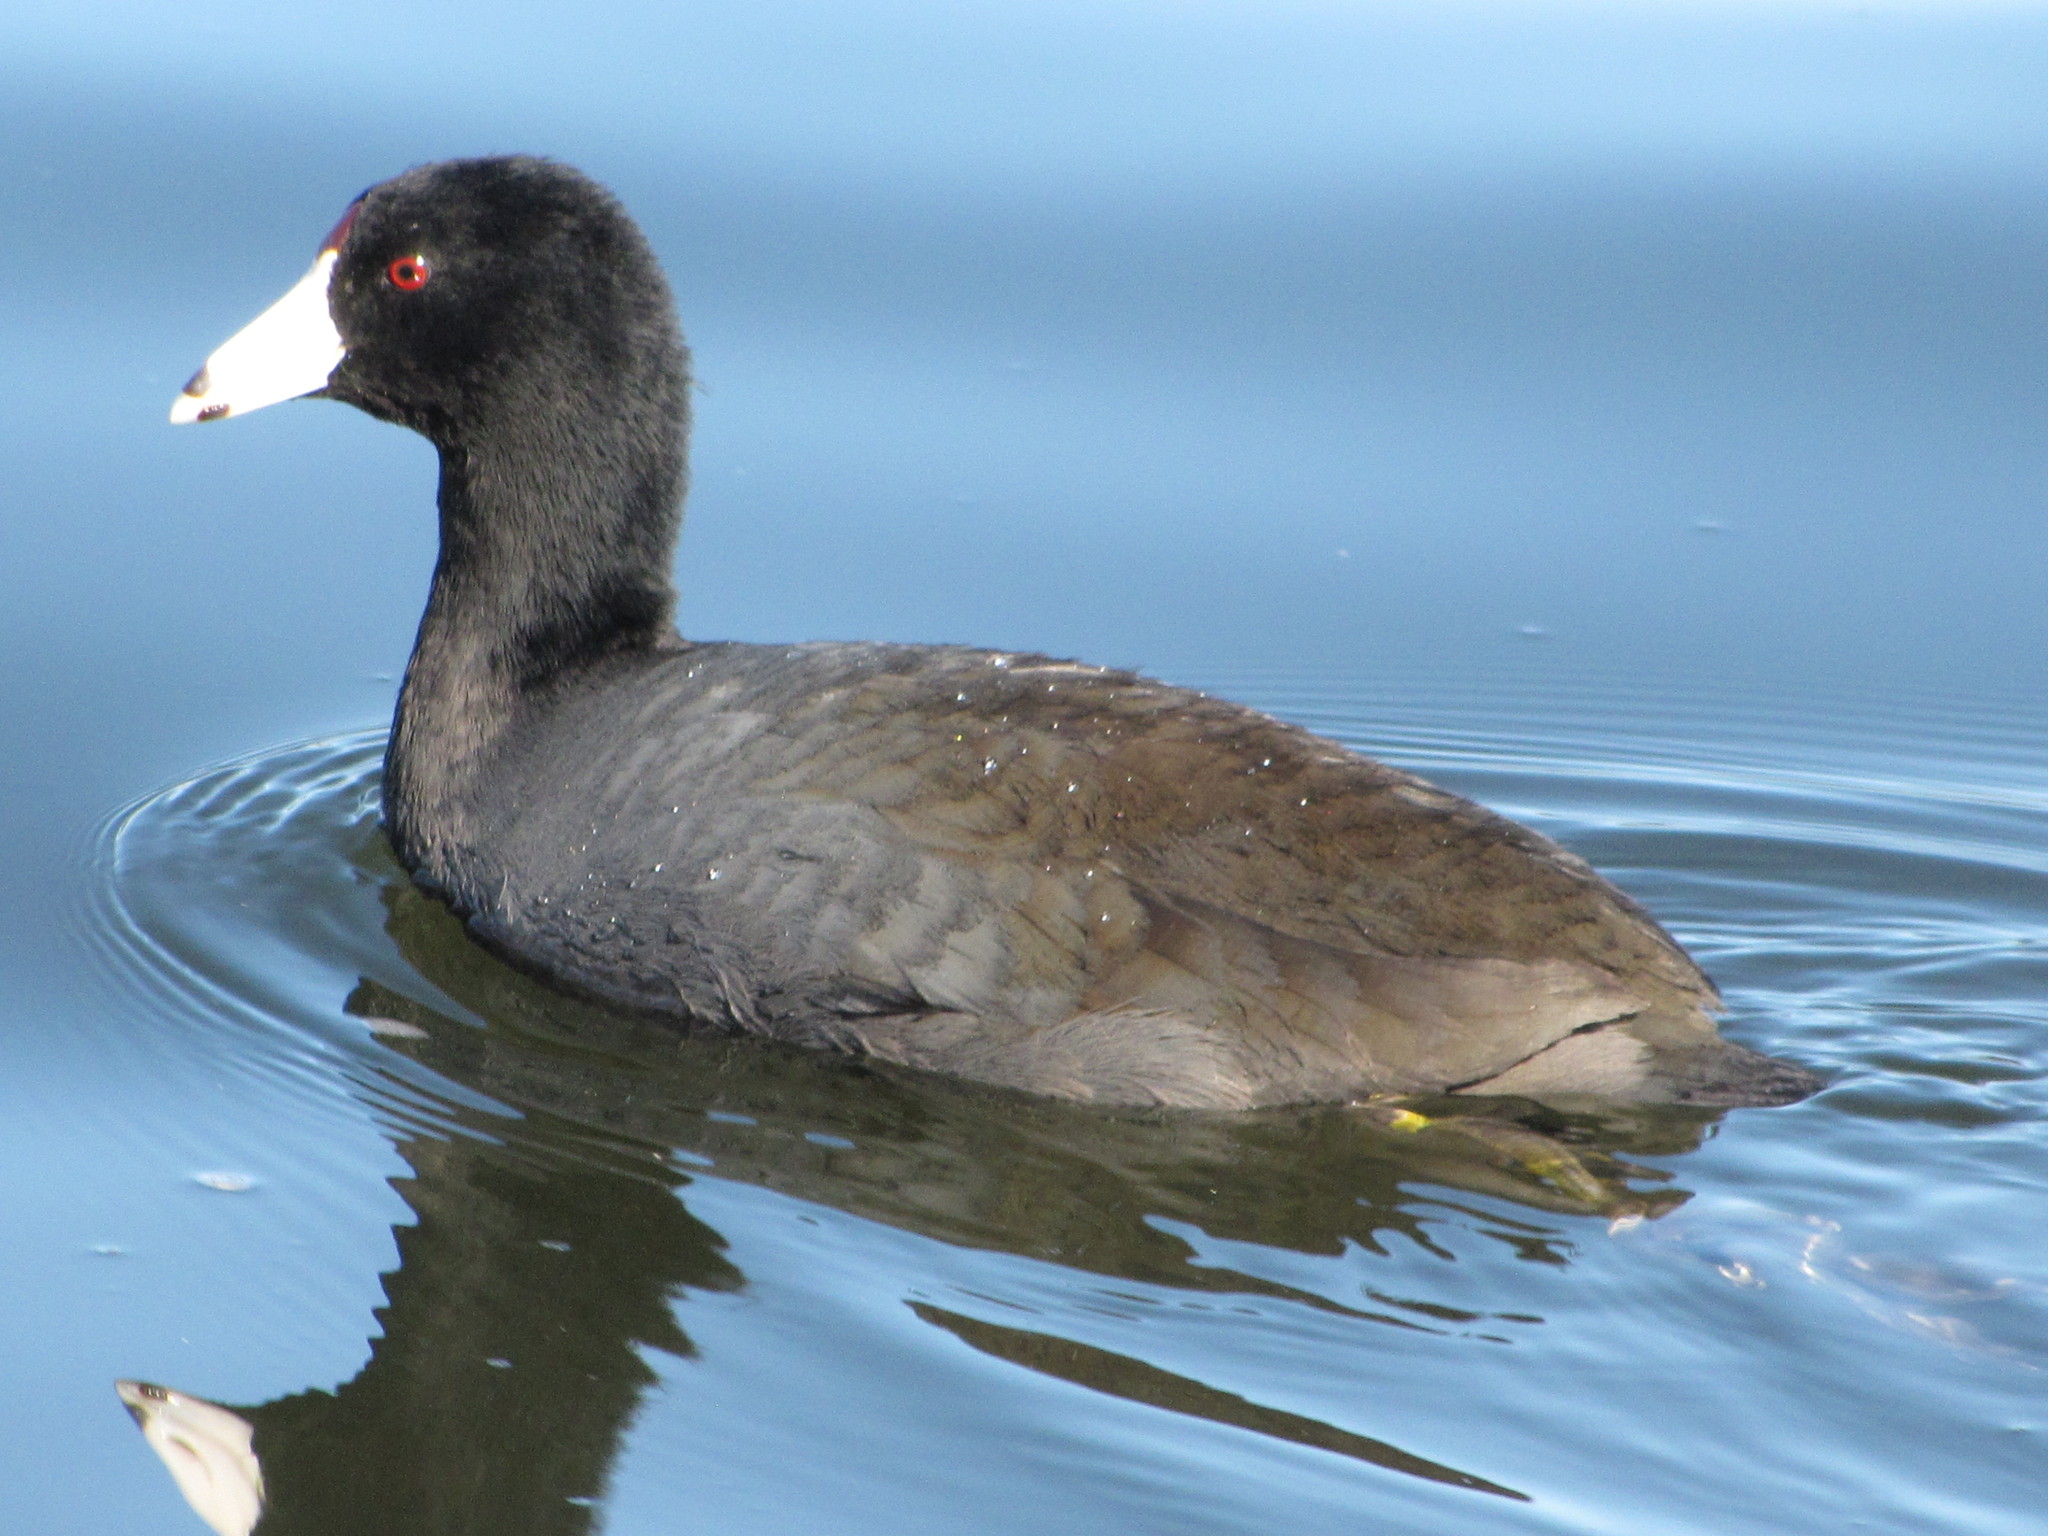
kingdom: Animalia
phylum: Chordata
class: Aves
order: Gruiformes
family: Rallidae
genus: Fulica
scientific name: Fulica americana
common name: American coot
